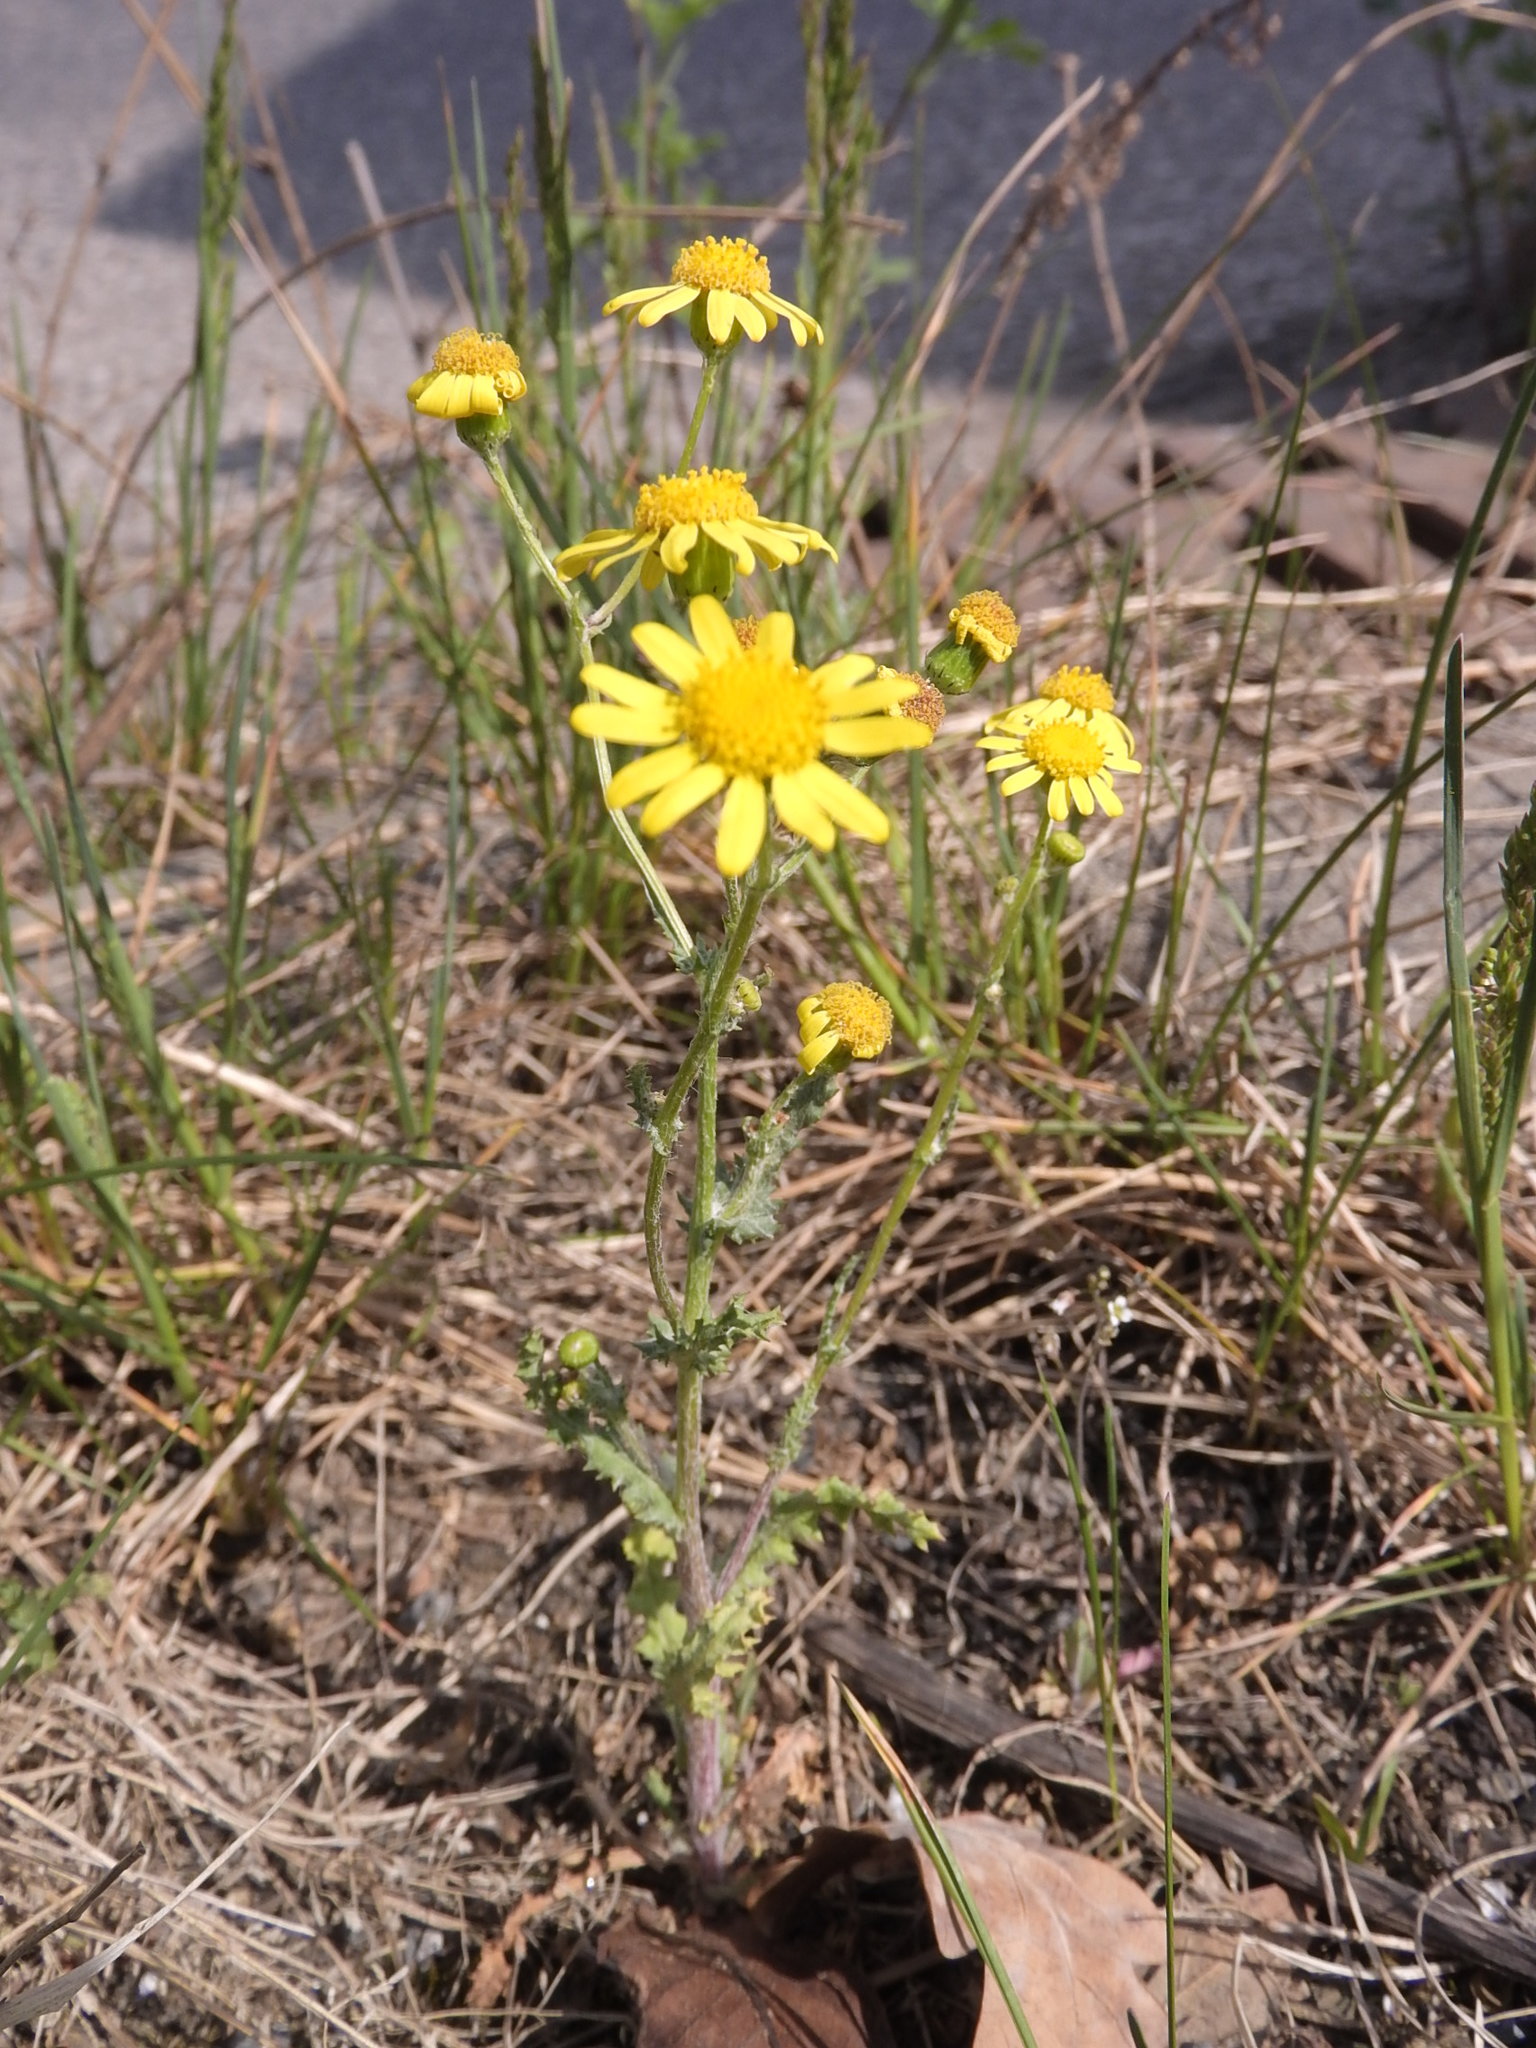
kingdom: Plantae
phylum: Tracheophyta
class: Magnoliopsida
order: Asterales
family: Asteraceae
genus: Senecio
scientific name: Senecio vernalis
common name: Eastern groundsel
